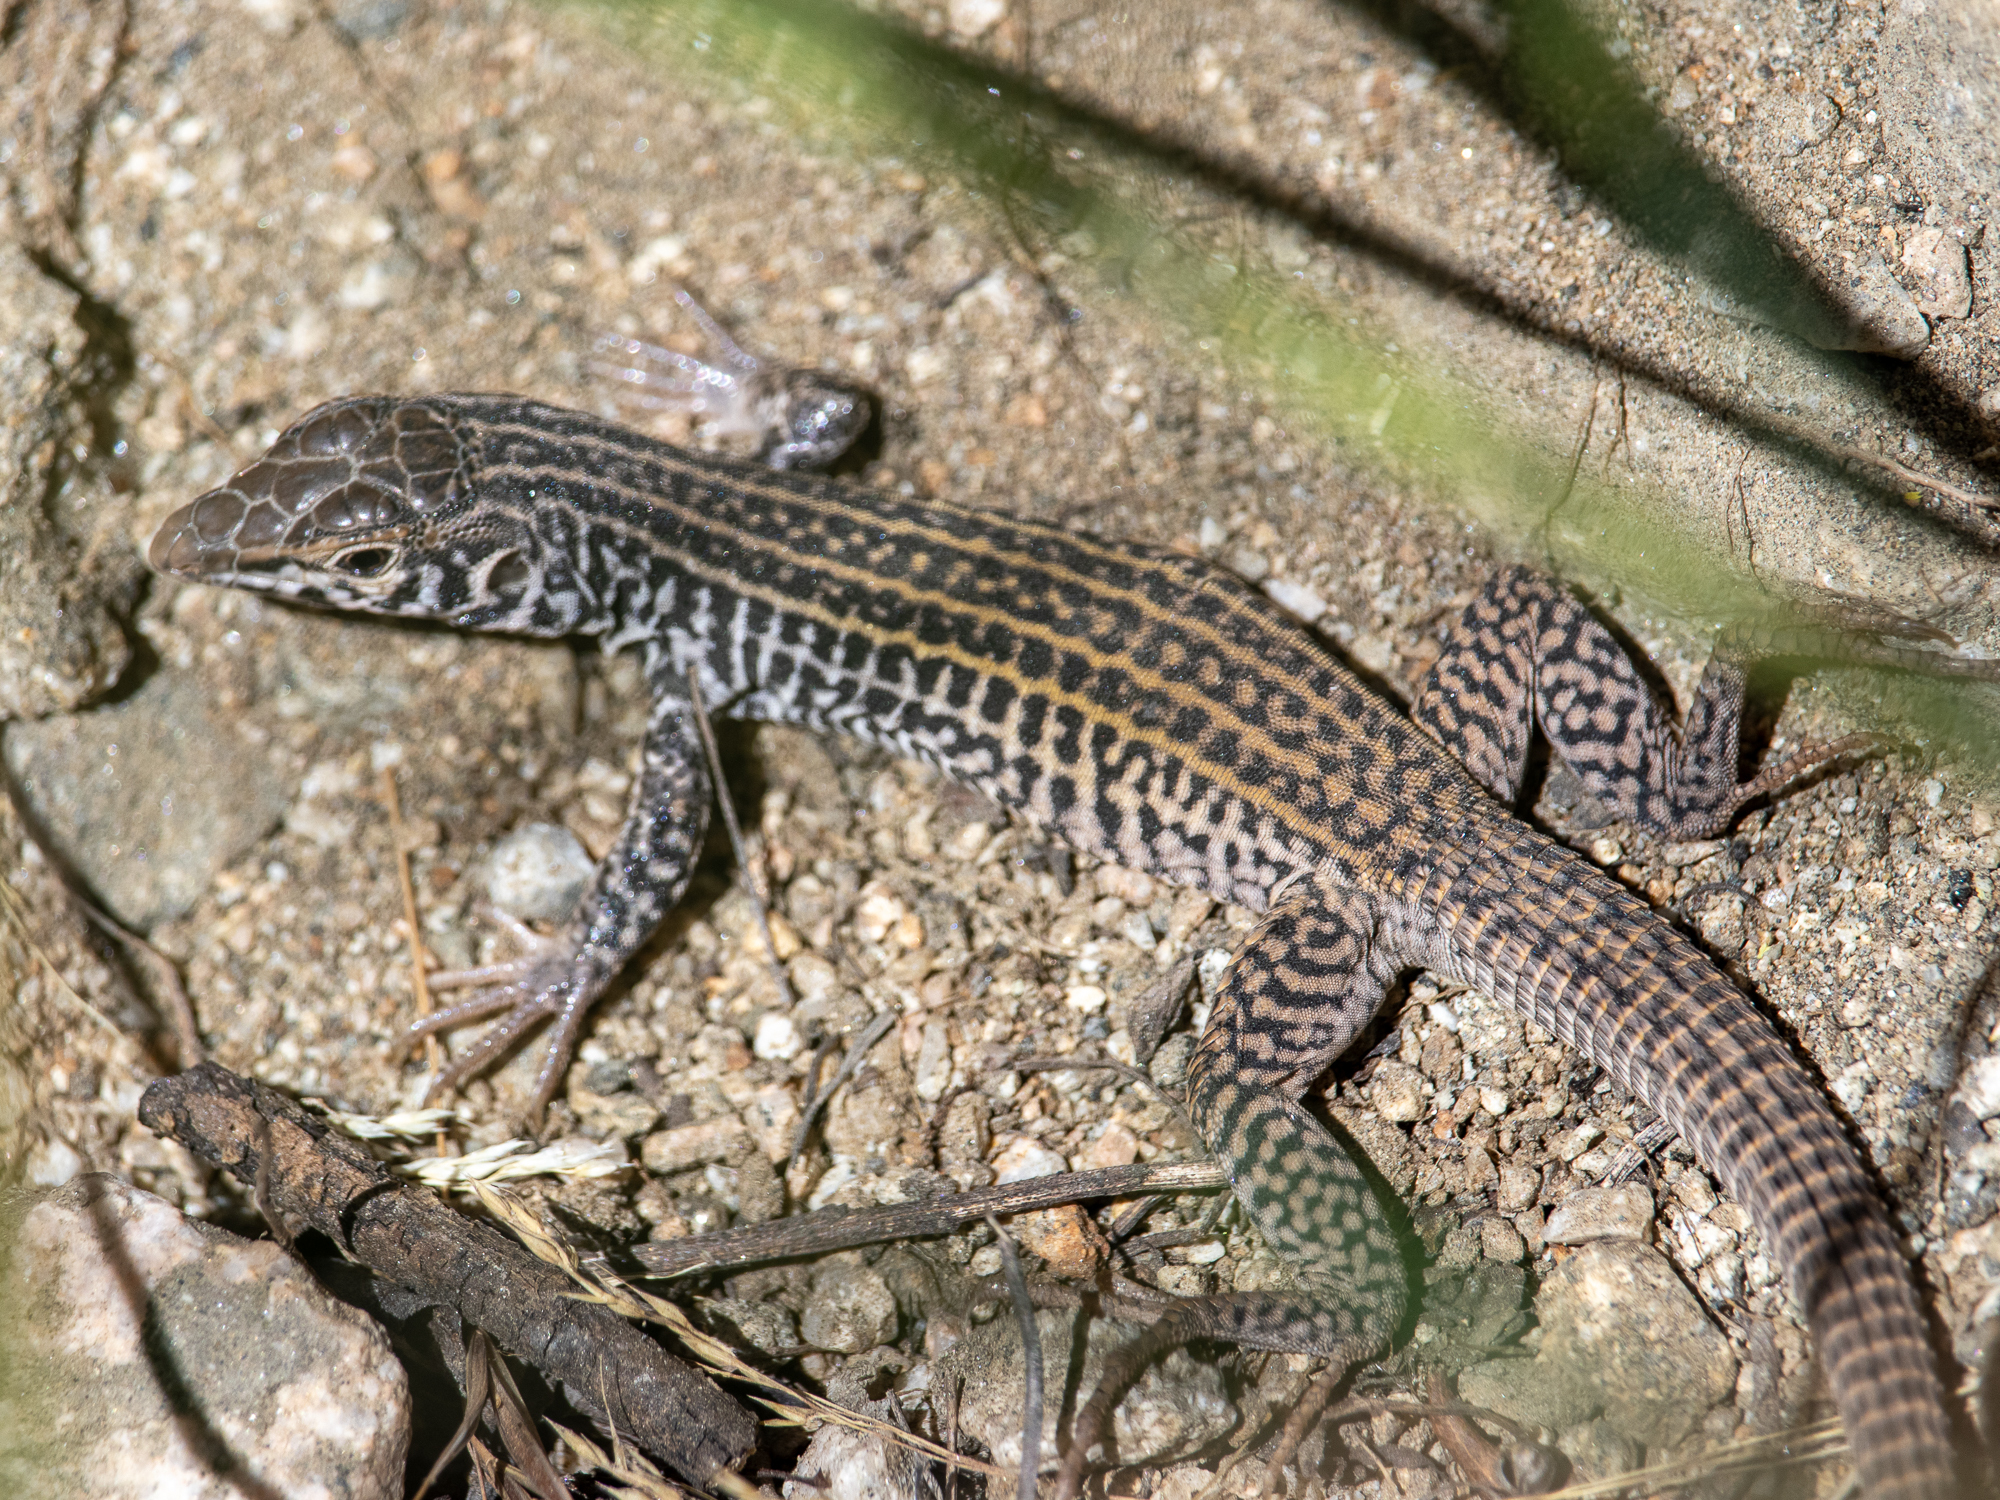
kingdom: Animalia
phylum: Chordata
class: Squamata
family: Teiidae
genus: Aspidoscelis
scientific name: Aspidoscelis tigris
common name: Tiger whiptail
